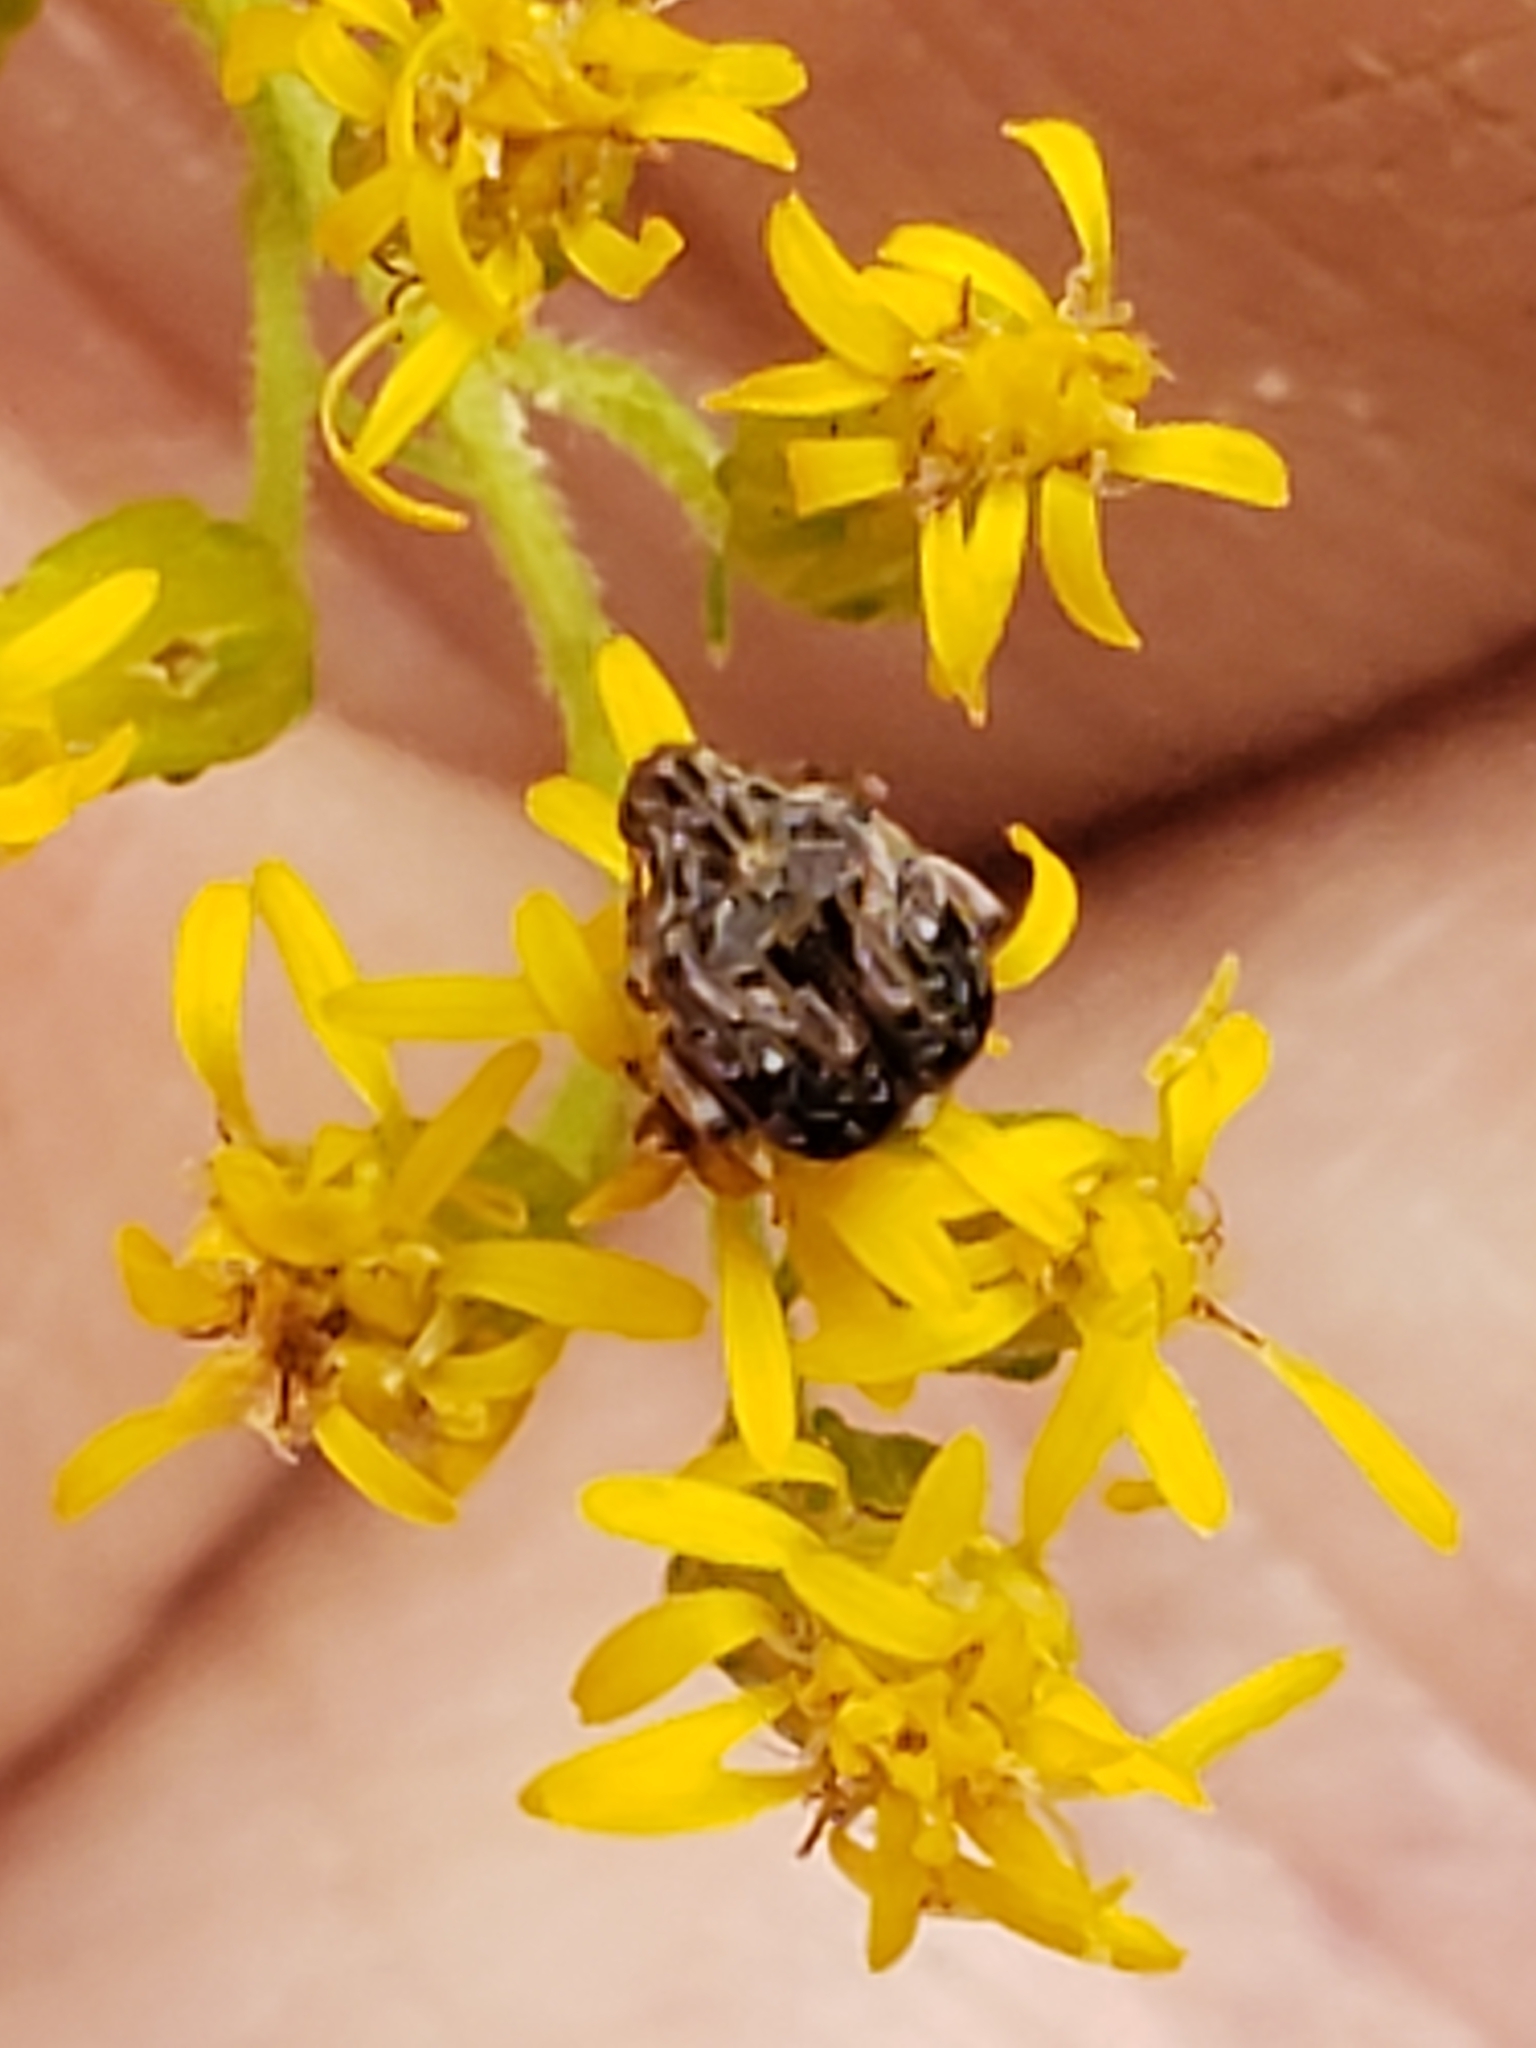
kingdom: Animalia
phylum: Arthropoda
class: Insecta
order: Coleoptera
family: Chrysomelidae
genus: Gibbobruchus
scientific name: Gibbobruchus mimus
